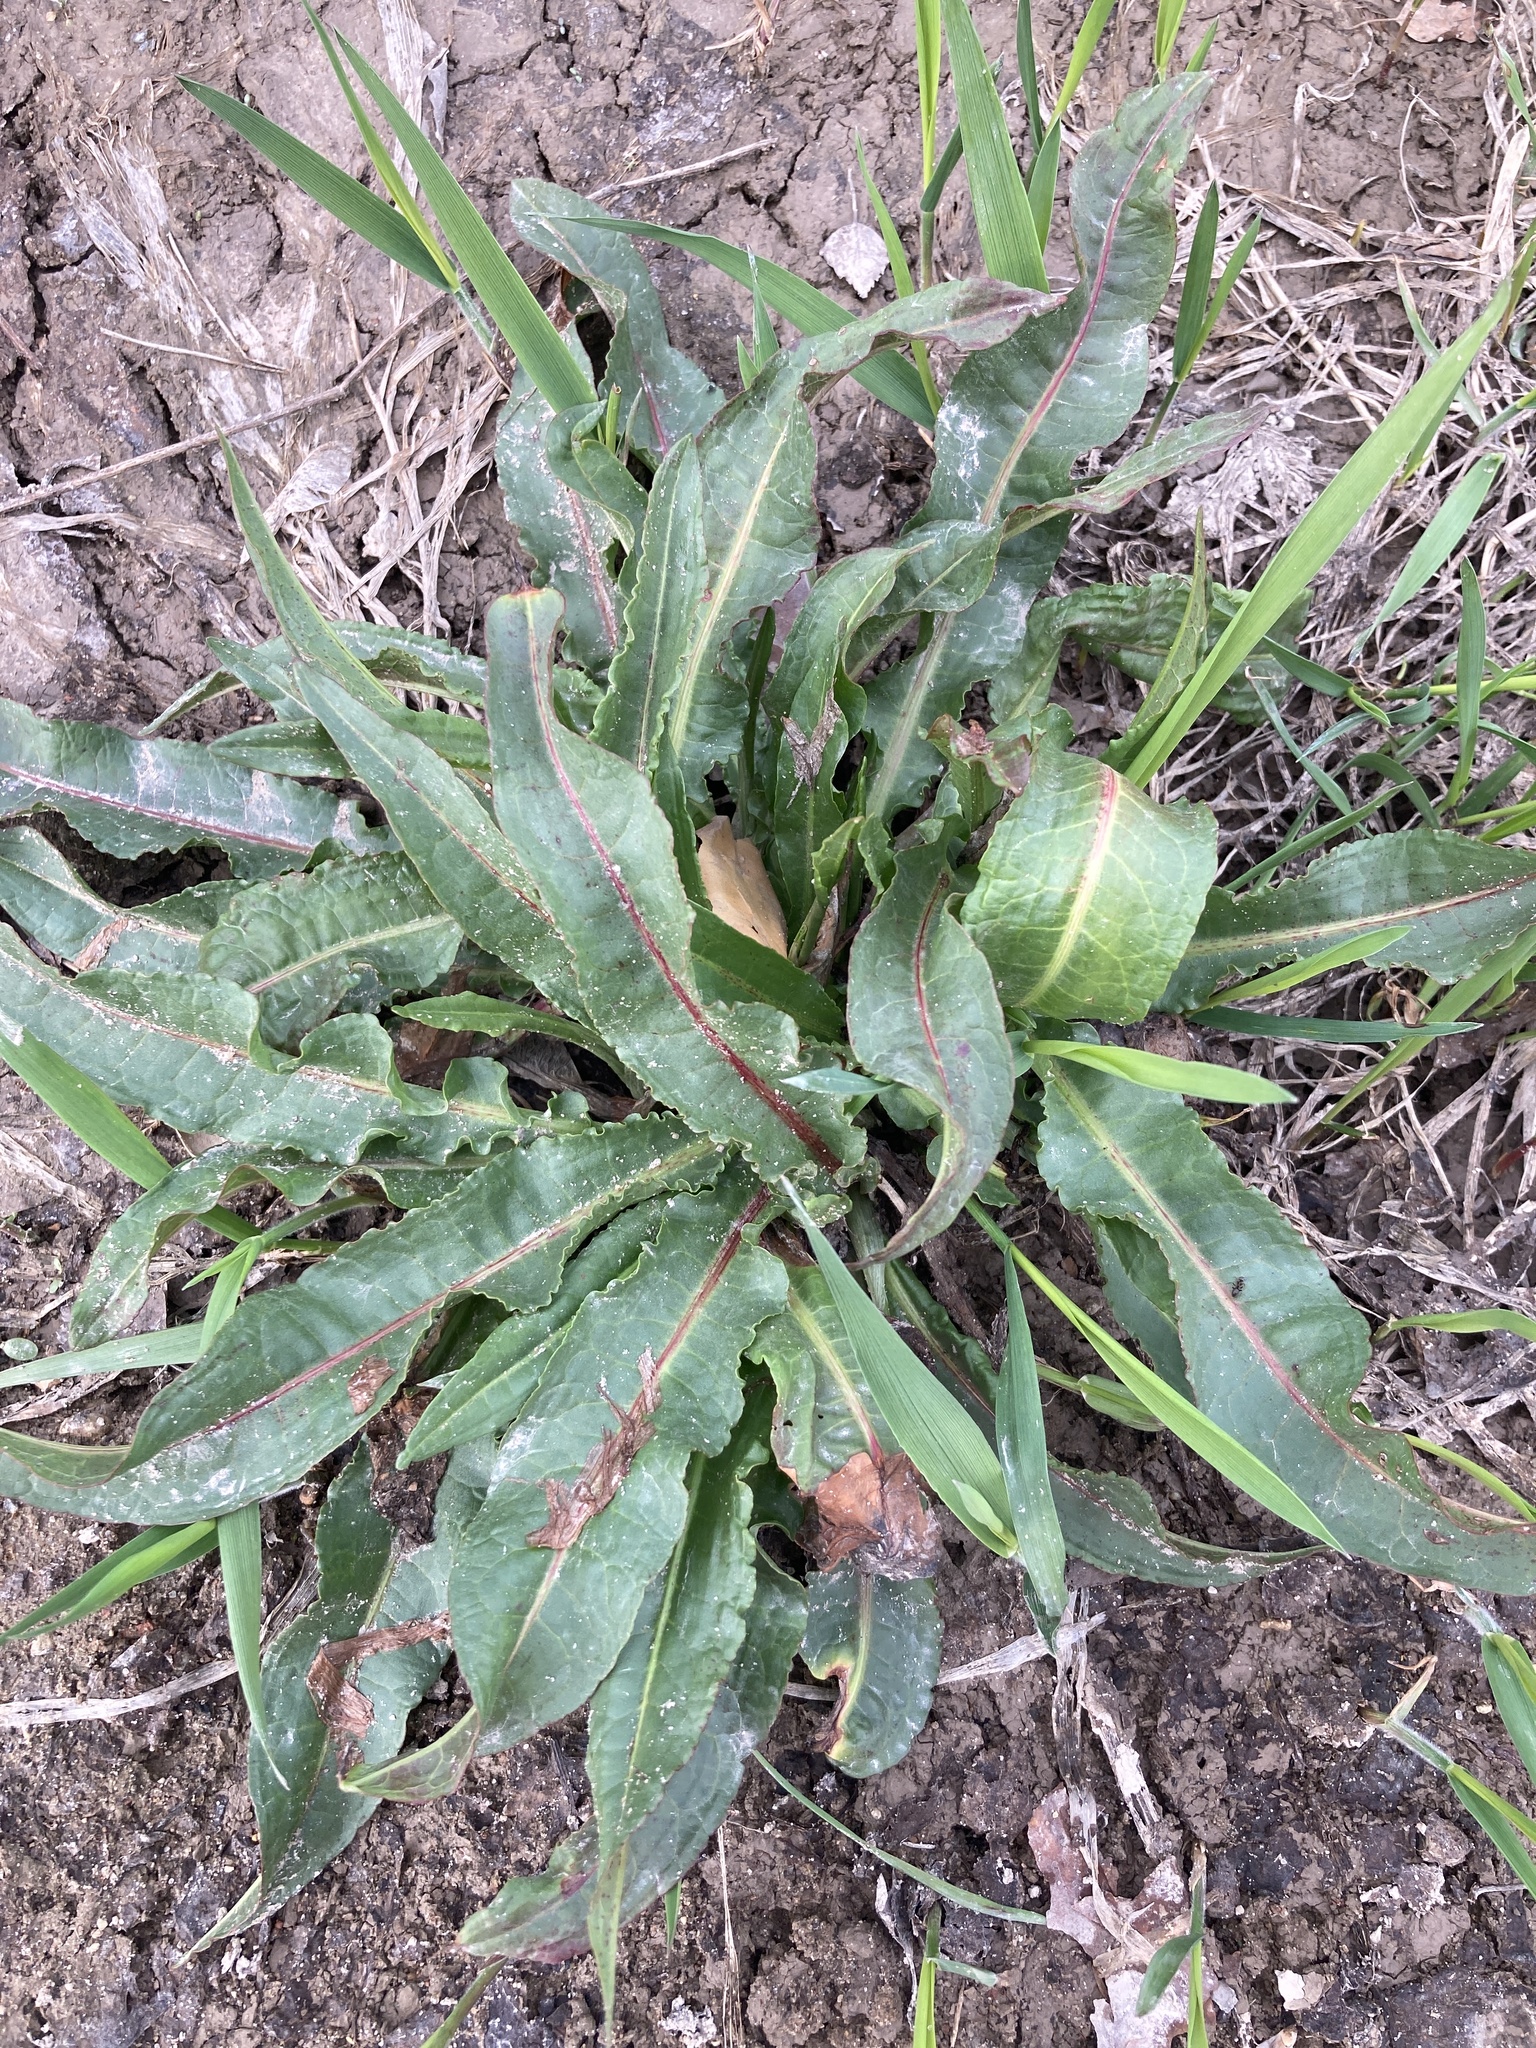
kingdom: Plantae
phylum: Tracheophyta
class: Magnoliopsida
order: Caryophyllales
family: Polygonaceae
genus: Rumex
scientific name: Rumex crispus
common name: Curled dock
